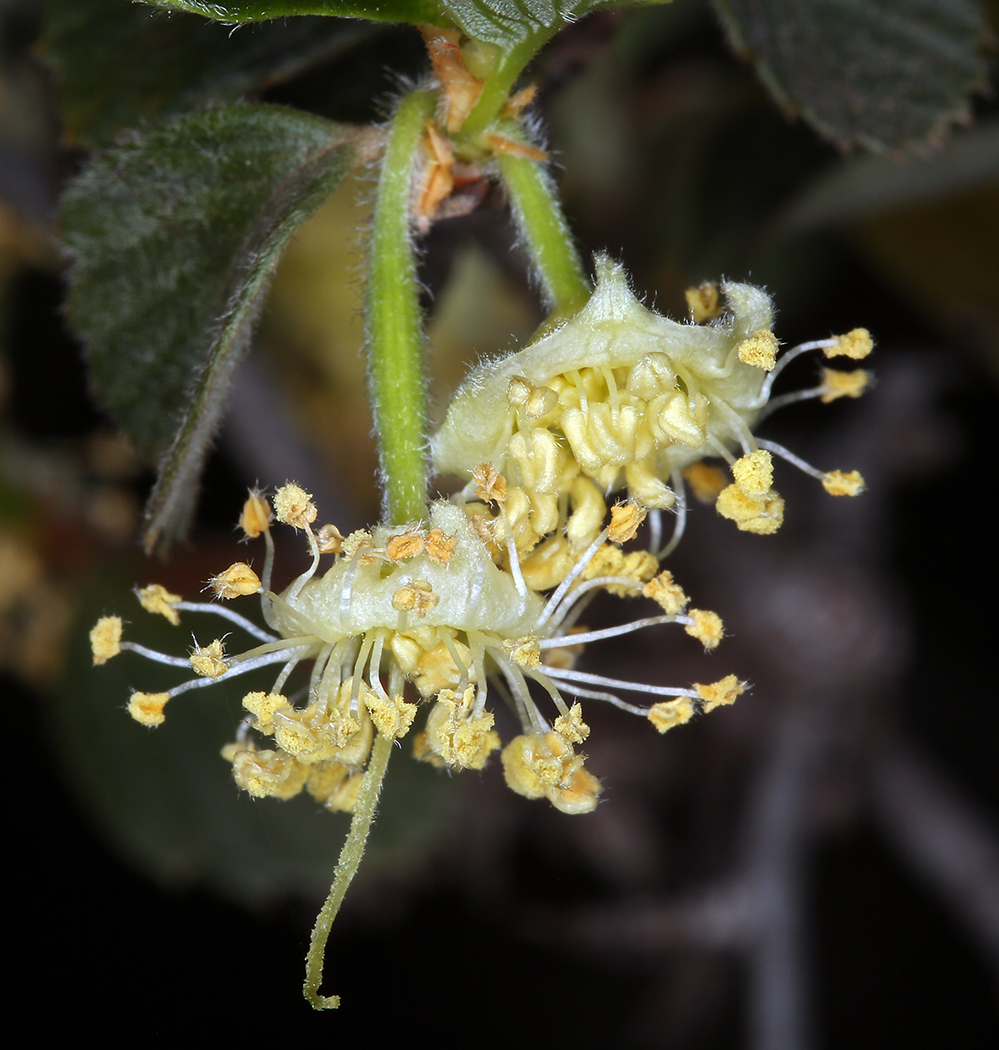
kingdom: Plantae
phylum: Tracheophyta
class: Magnoliopsida
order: Rosales
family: Rosaceae
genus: Cercocarpus
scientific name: Cercocarpus betuloides
